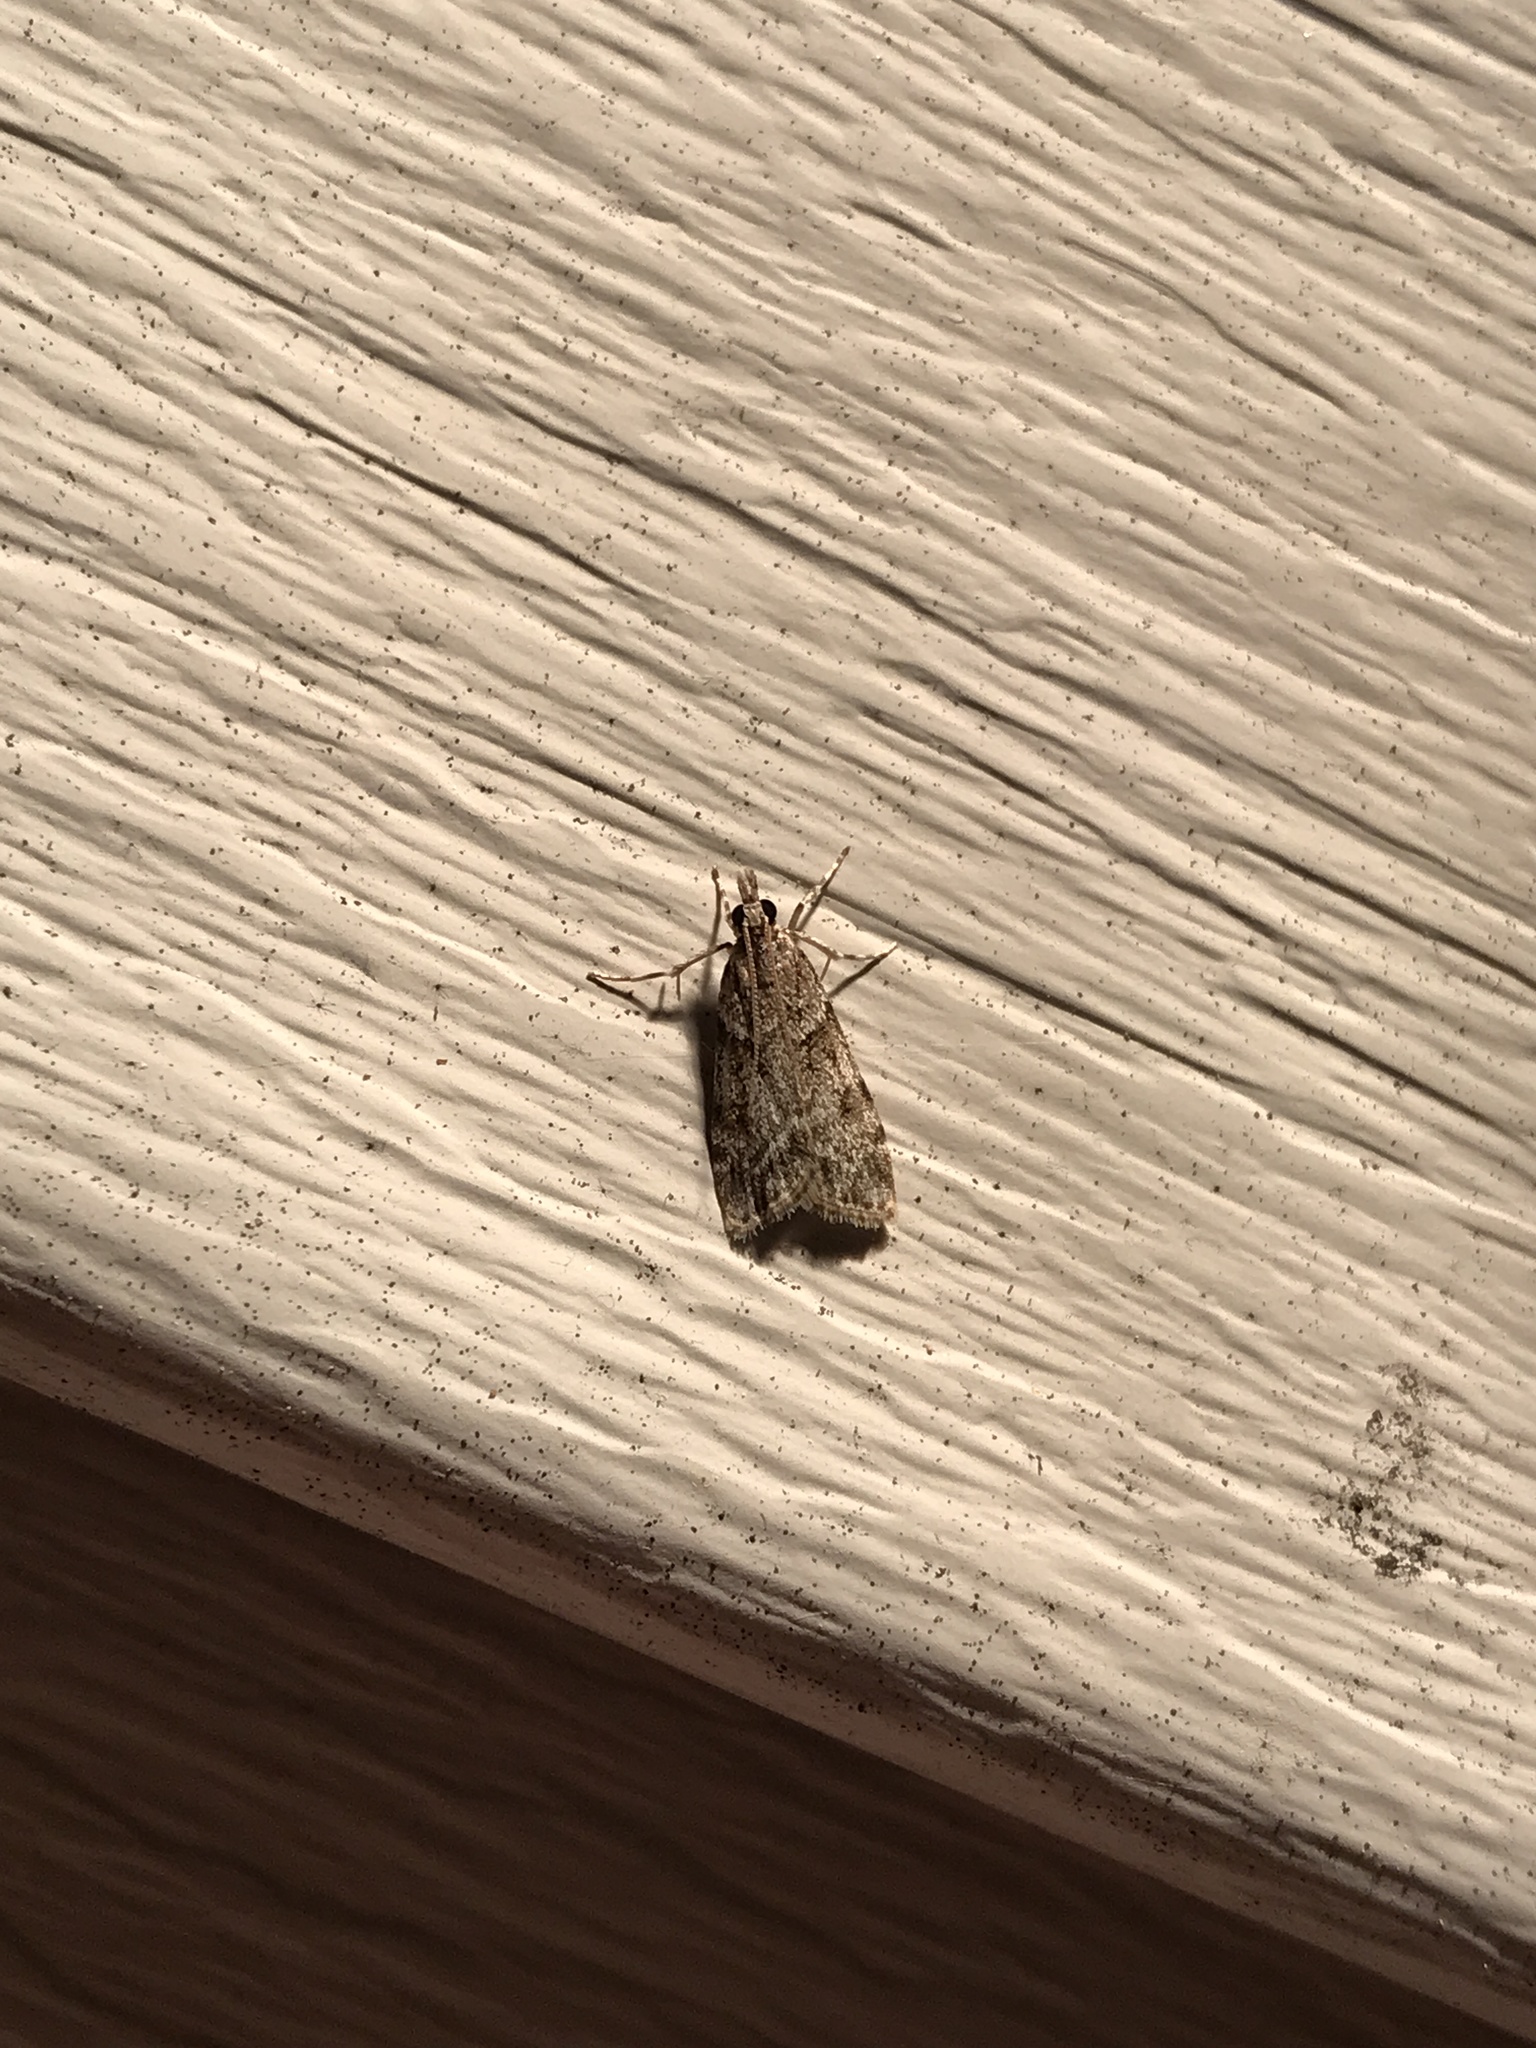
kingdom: Animalia
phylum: Arthropoda
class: Insecta
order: Lepidoptera
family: Crambidae
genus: Scoparia
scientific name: Scoparia biplagialis
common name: Double-striped scoparia moth
